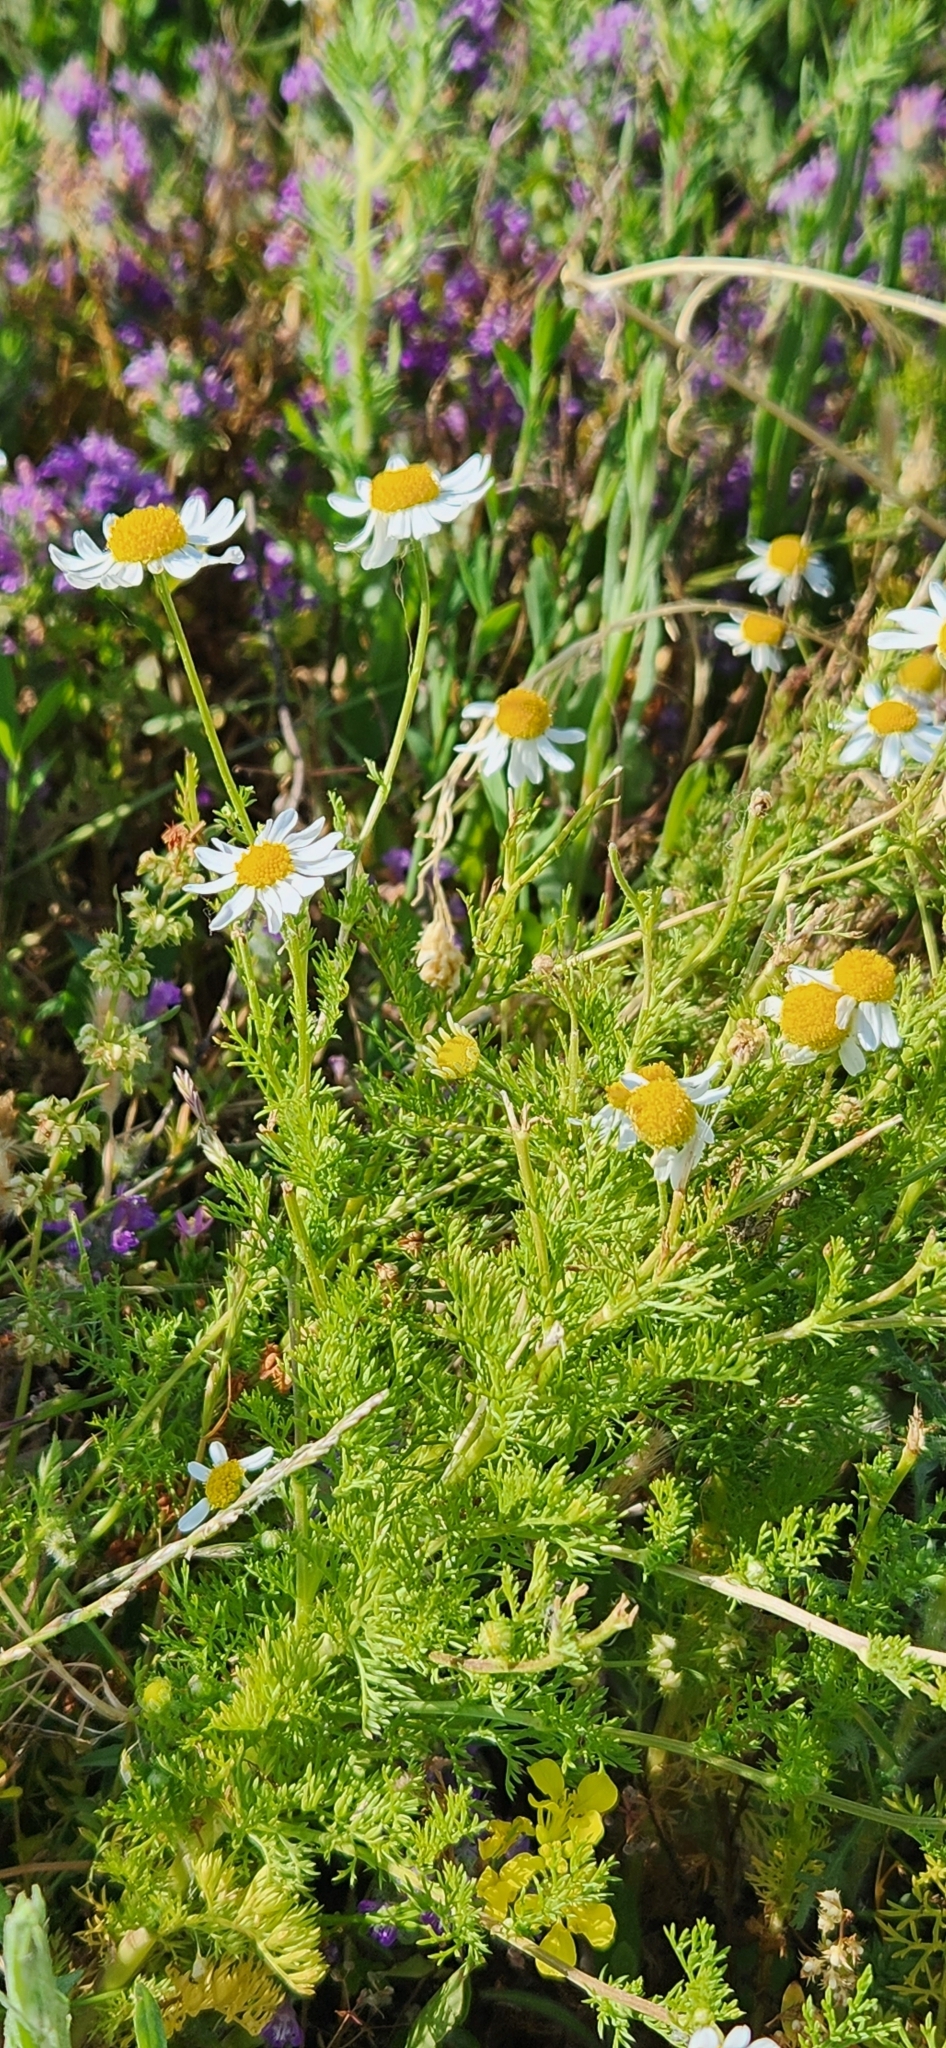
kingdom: Plantae
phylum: Tracheophyta
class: Magnoliopsida
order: Asterales
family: Asteraceae
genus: Anthemis
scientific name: Anthemis cotula
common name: Stinking chamomile
